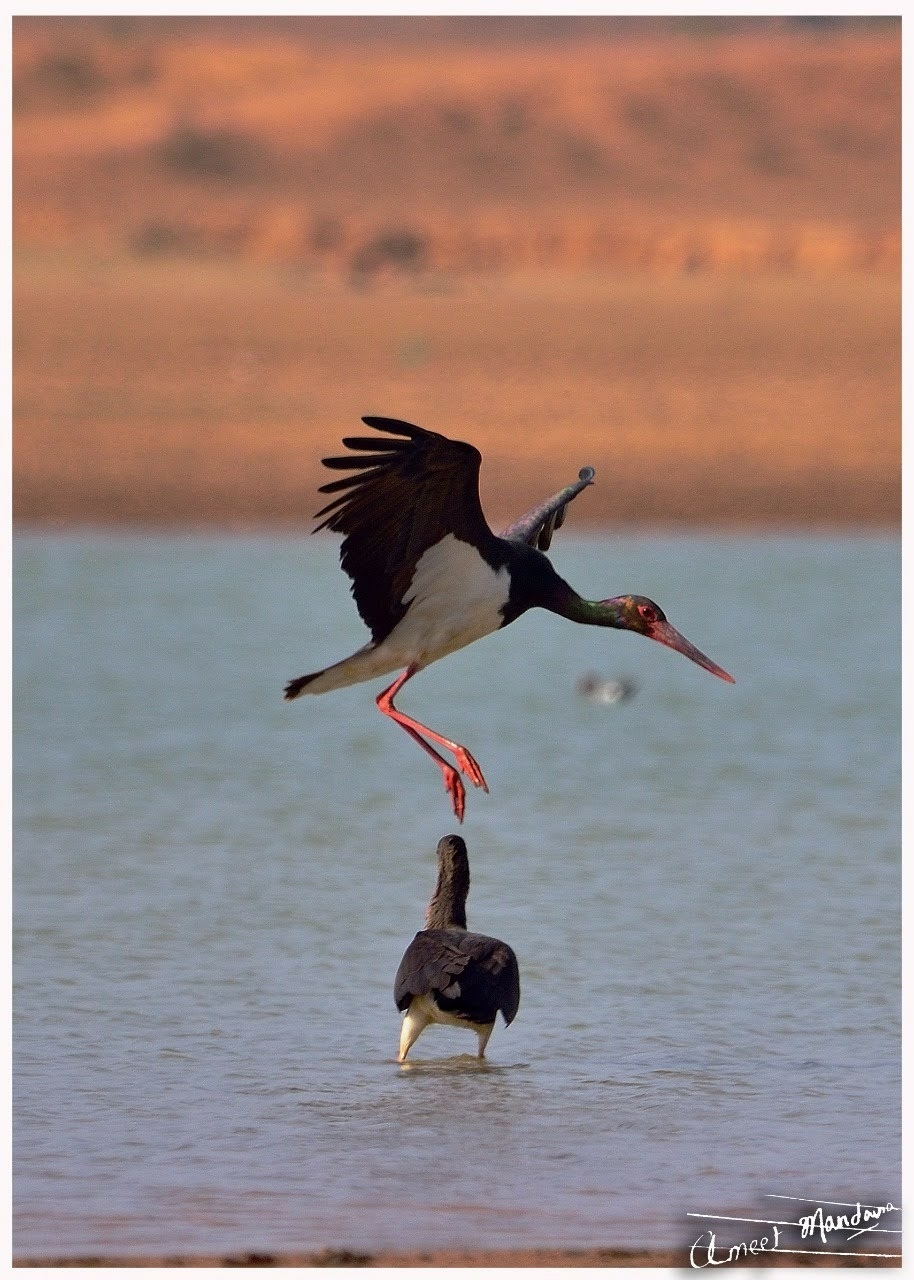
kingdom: Animalia
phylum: Chordata
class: Aves
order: Ciconiiformes
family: Ciconiidae
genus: Ciconia
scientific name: Ciconia nigra
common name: Black stork
